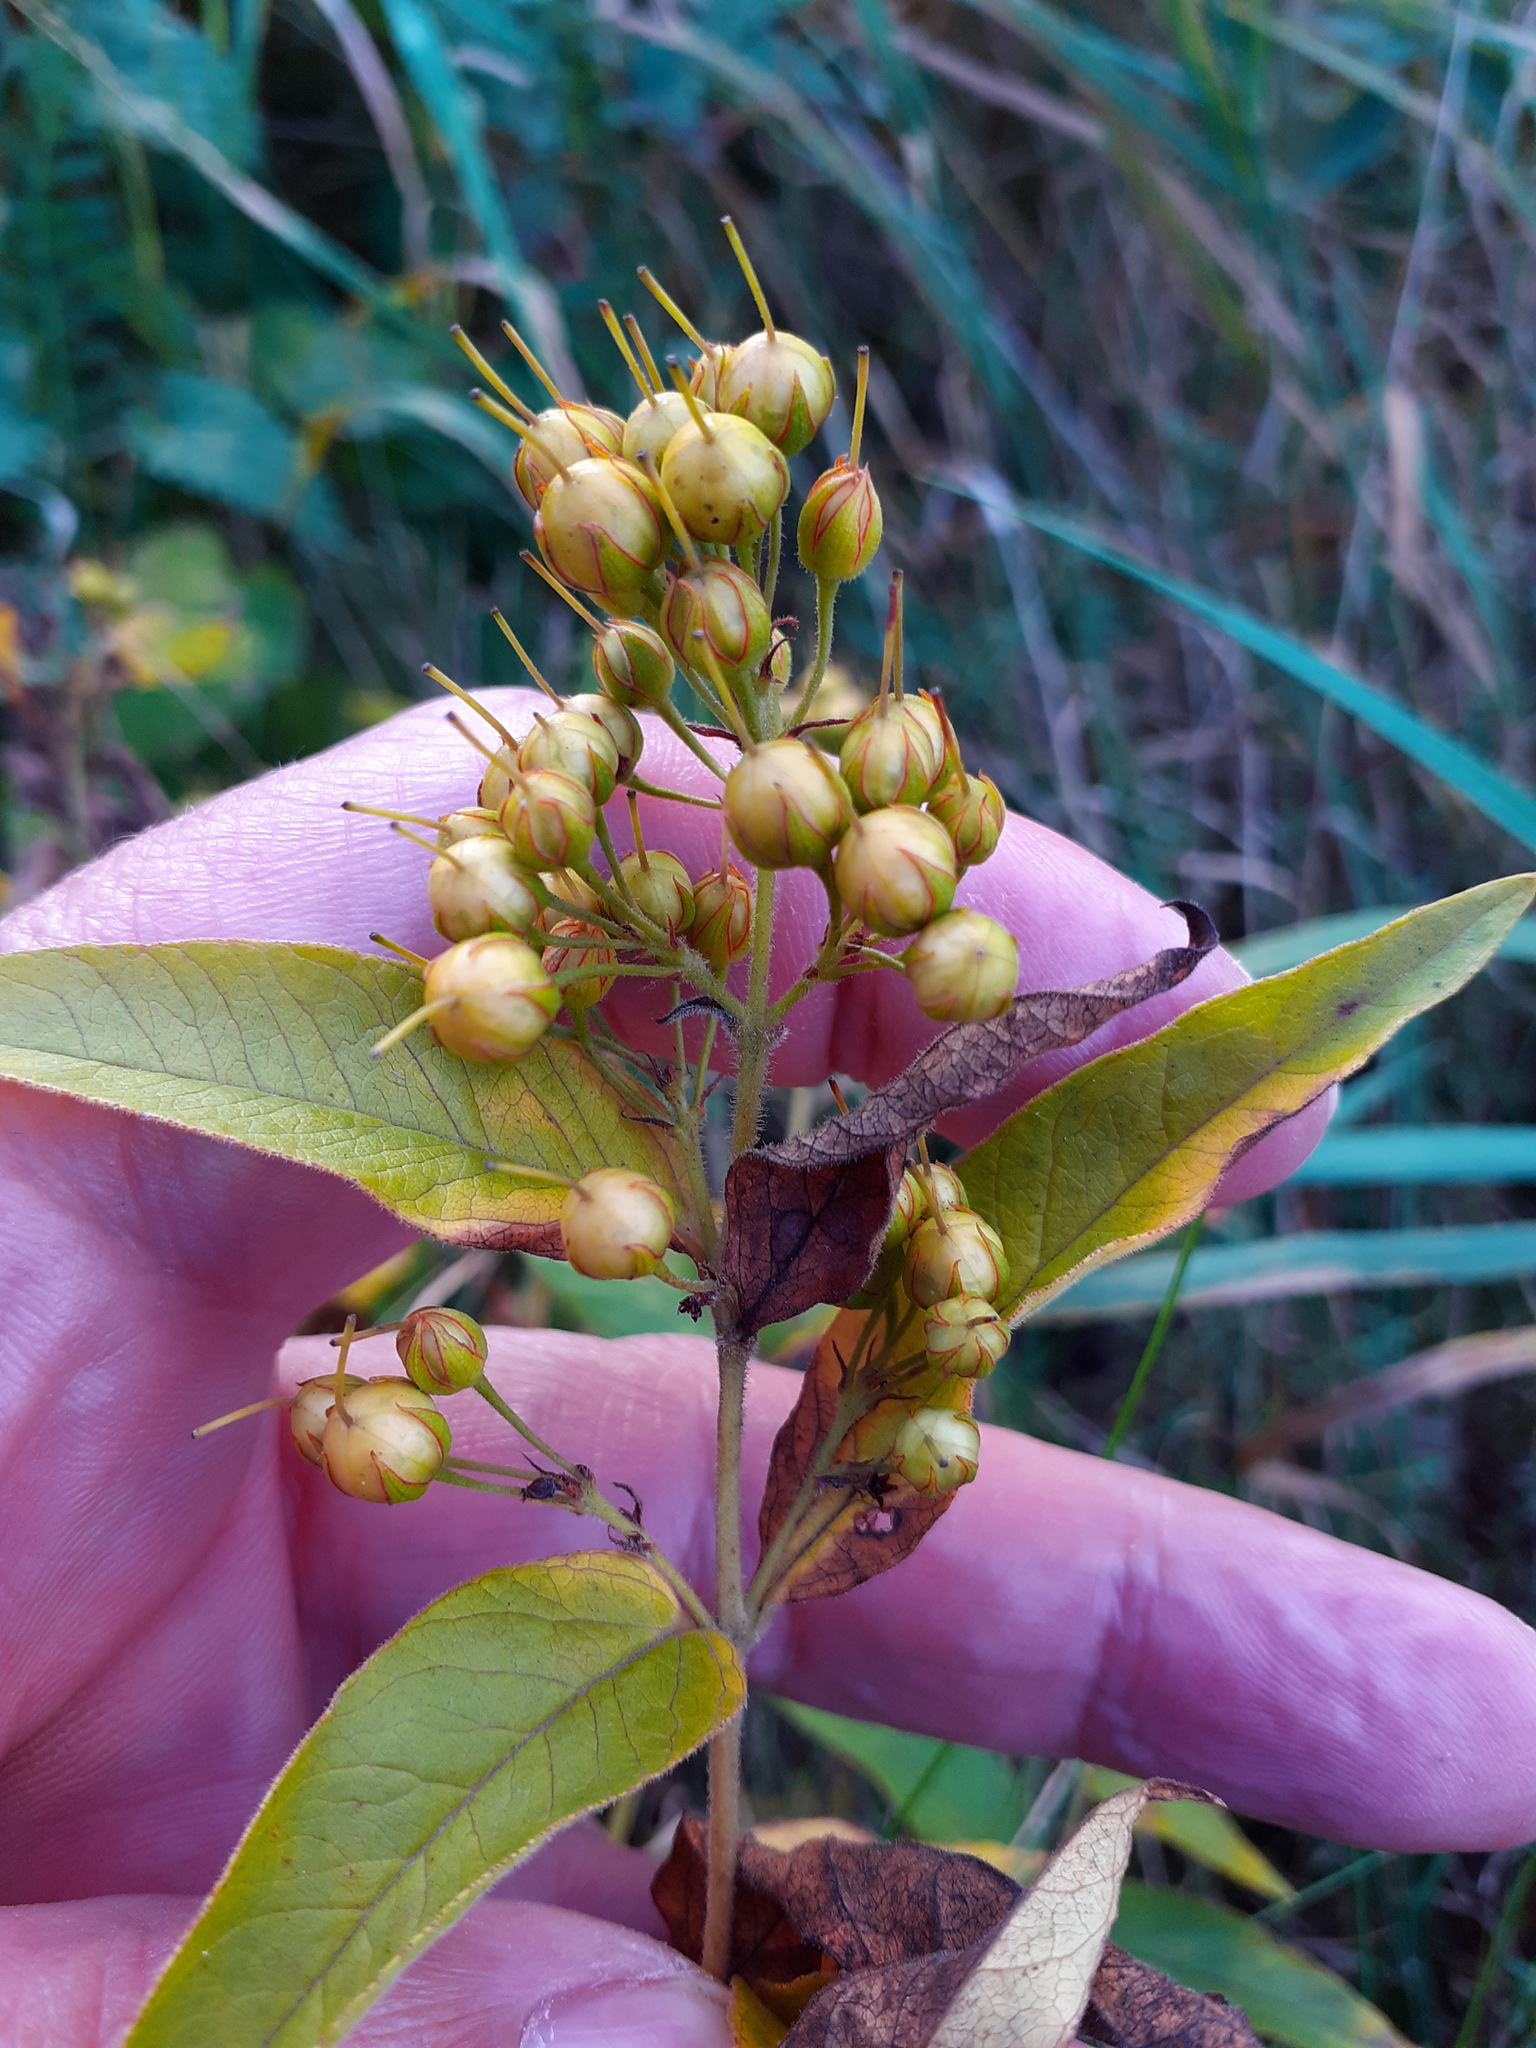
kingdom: Plantae
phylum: Tracheophyta
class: Magnoliopsida
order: Ericales
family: Primulaceae
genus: Lysimachia
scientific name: Lysimachia vulgaris
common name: Yellow loosestrife
